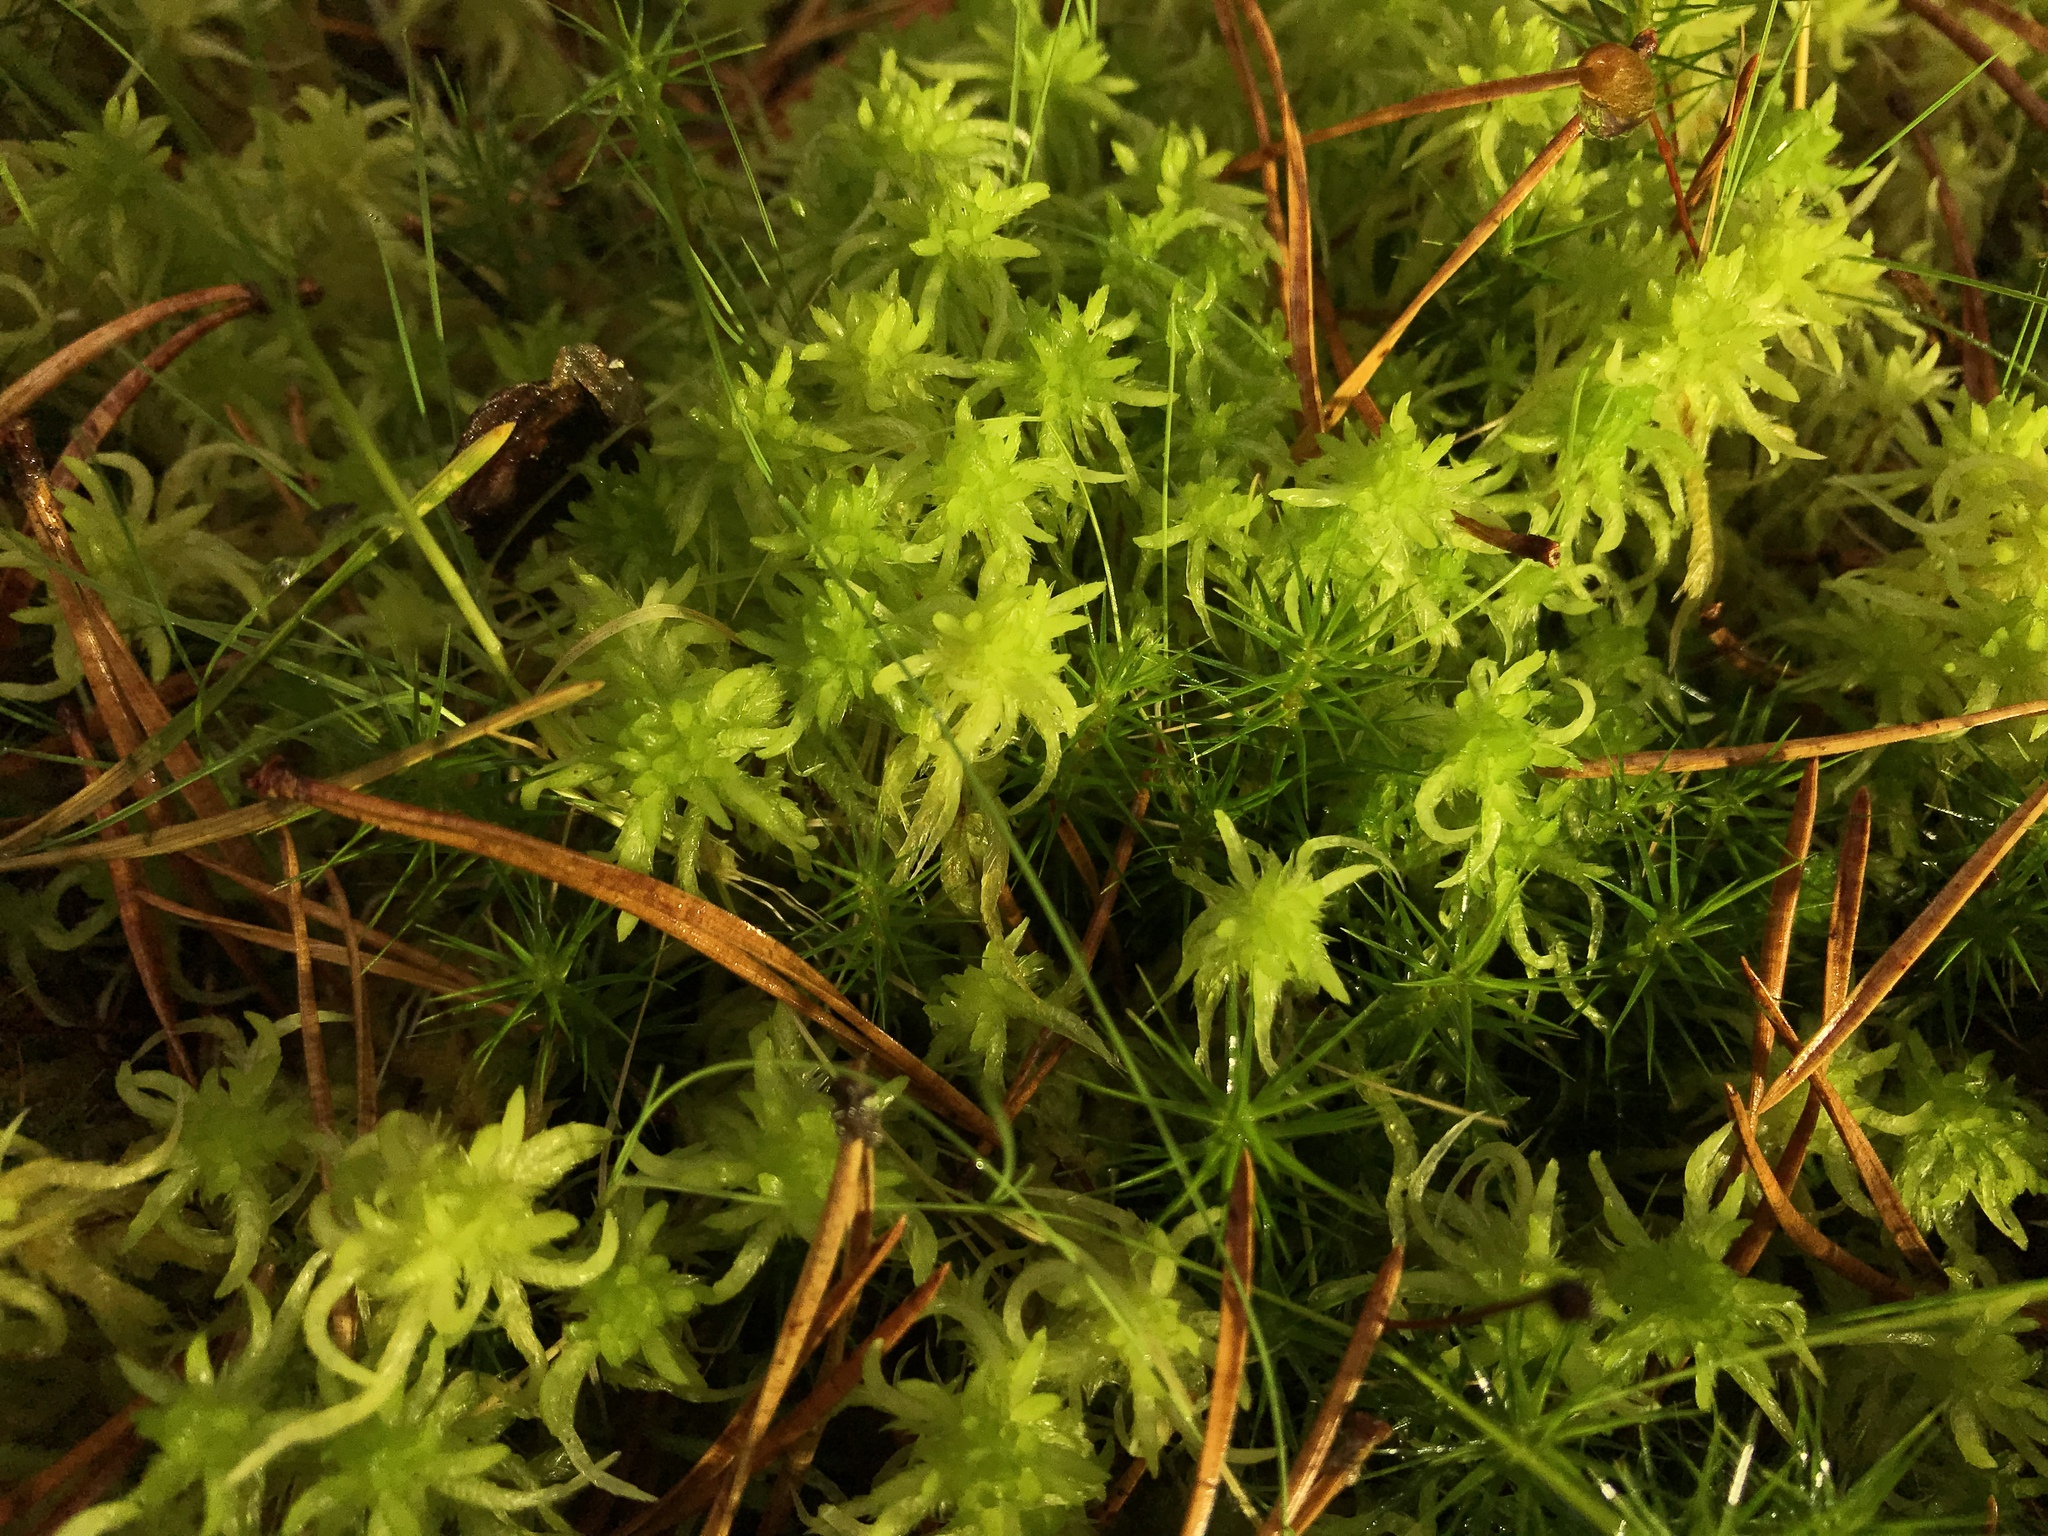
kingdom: Plantae
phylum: Bryophyta
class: Sphagnopsida
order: Sphagnales
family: Sphagnaceae
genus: Sphagnum
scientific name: Sphagnum inundatum
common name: Lesser cow-horn bog-moss
